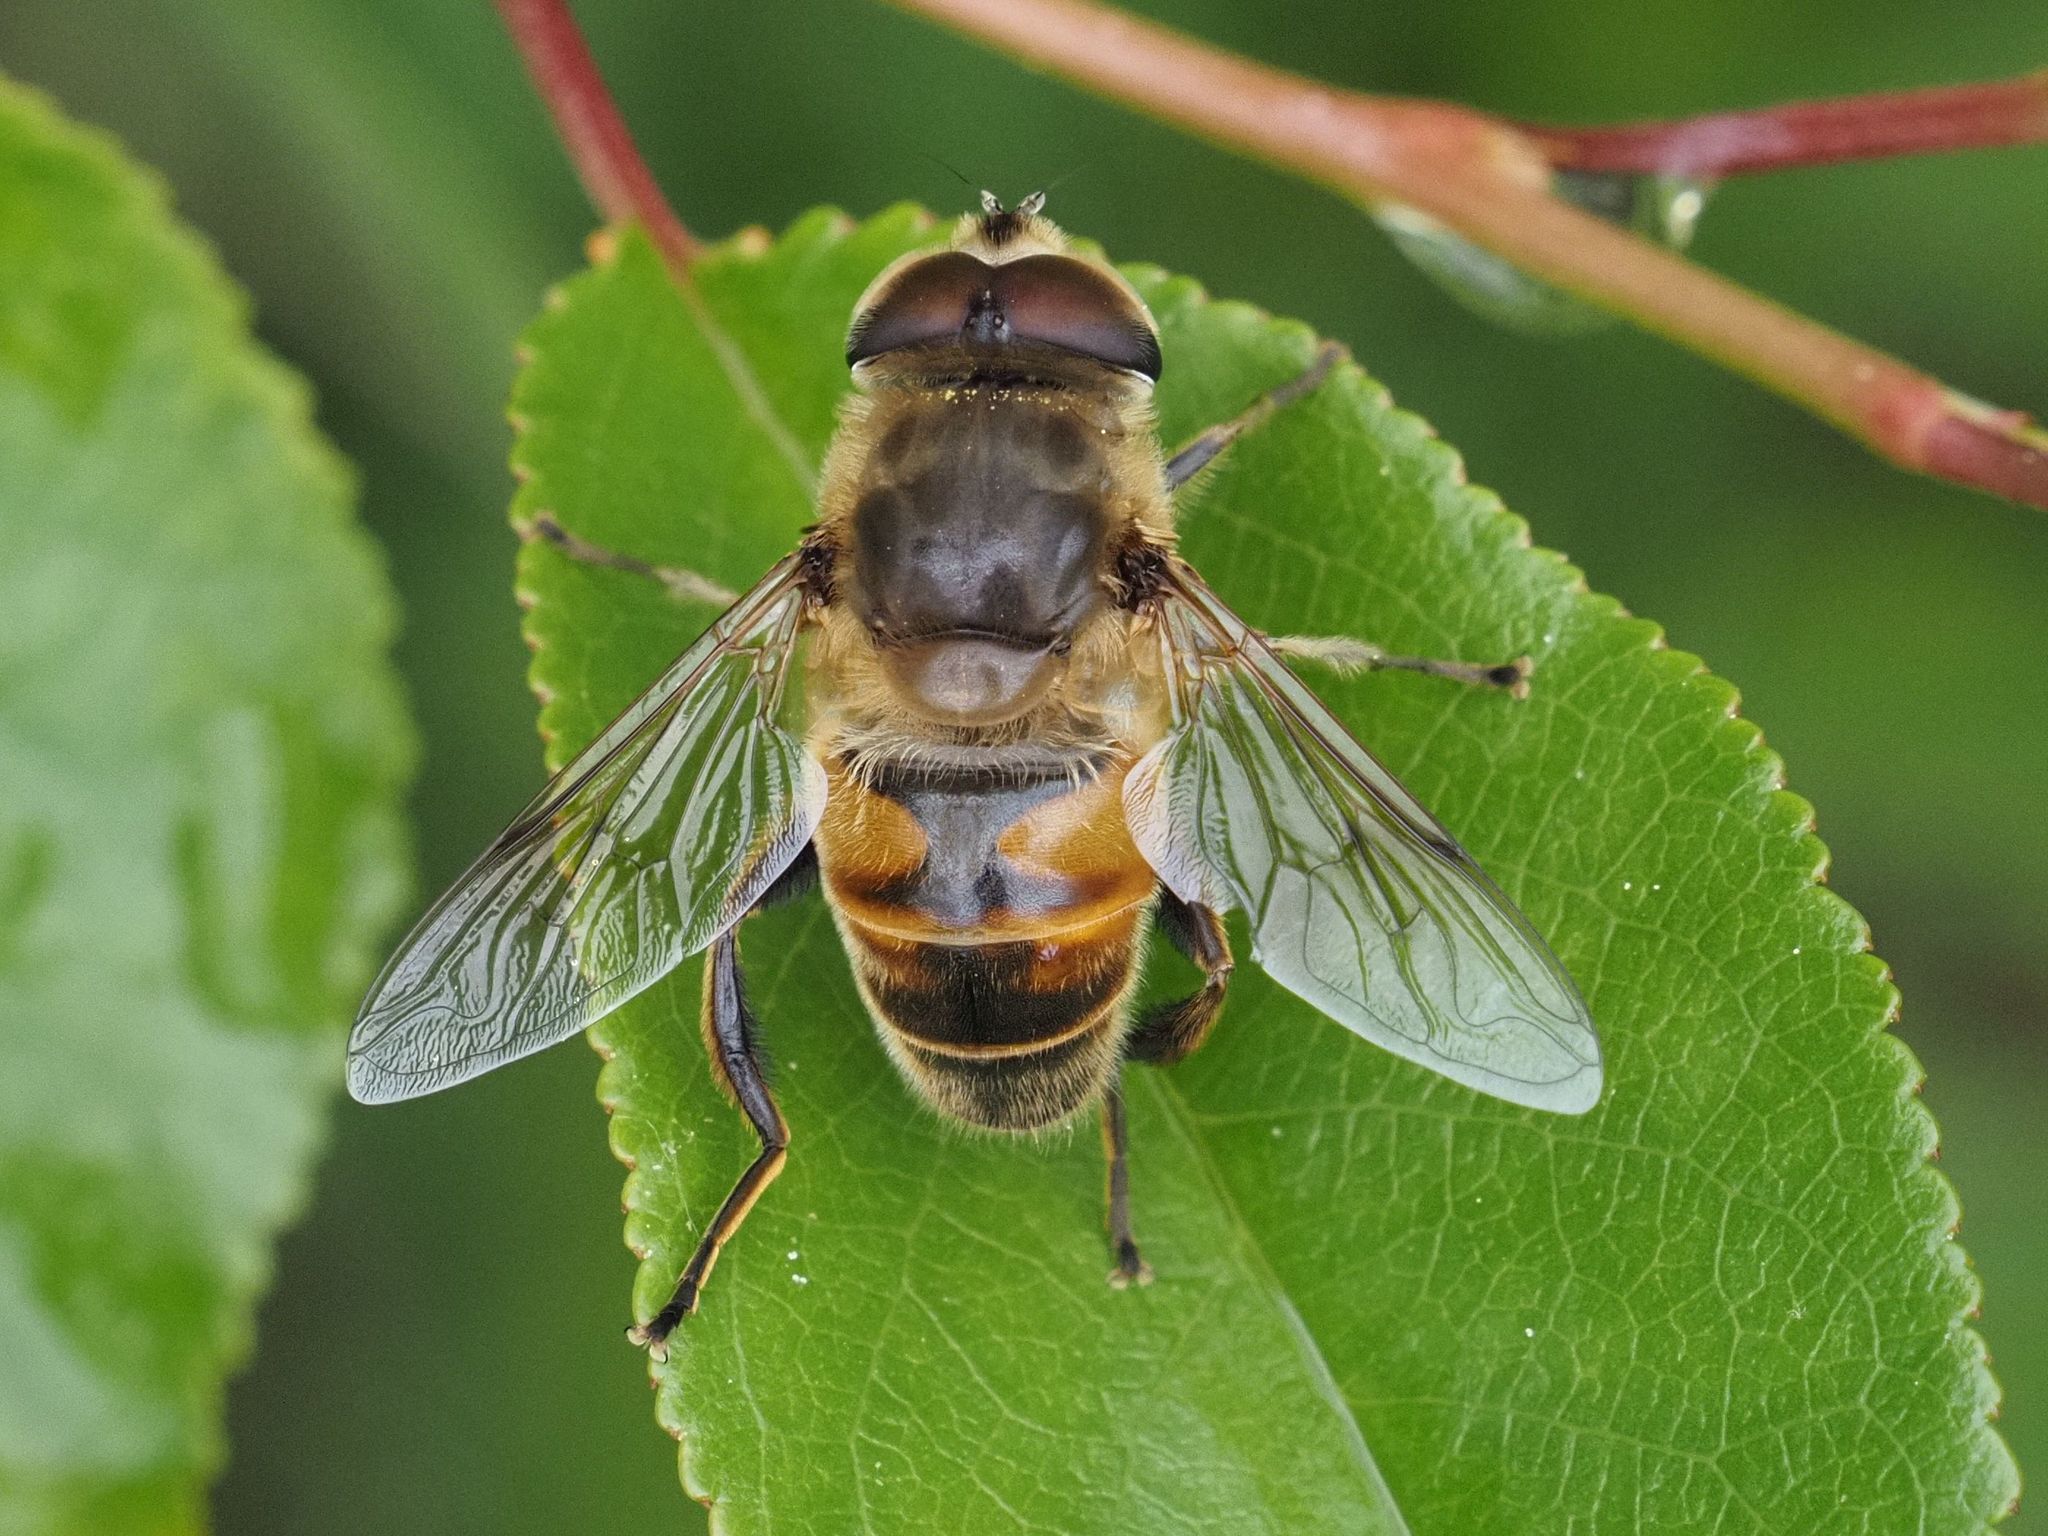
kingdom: Animalia
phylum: Arthropoda
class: Insecta
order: Diptera
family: Syrphidae
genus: Eristalis
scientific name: Eristalis tenax
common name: Drone fly
